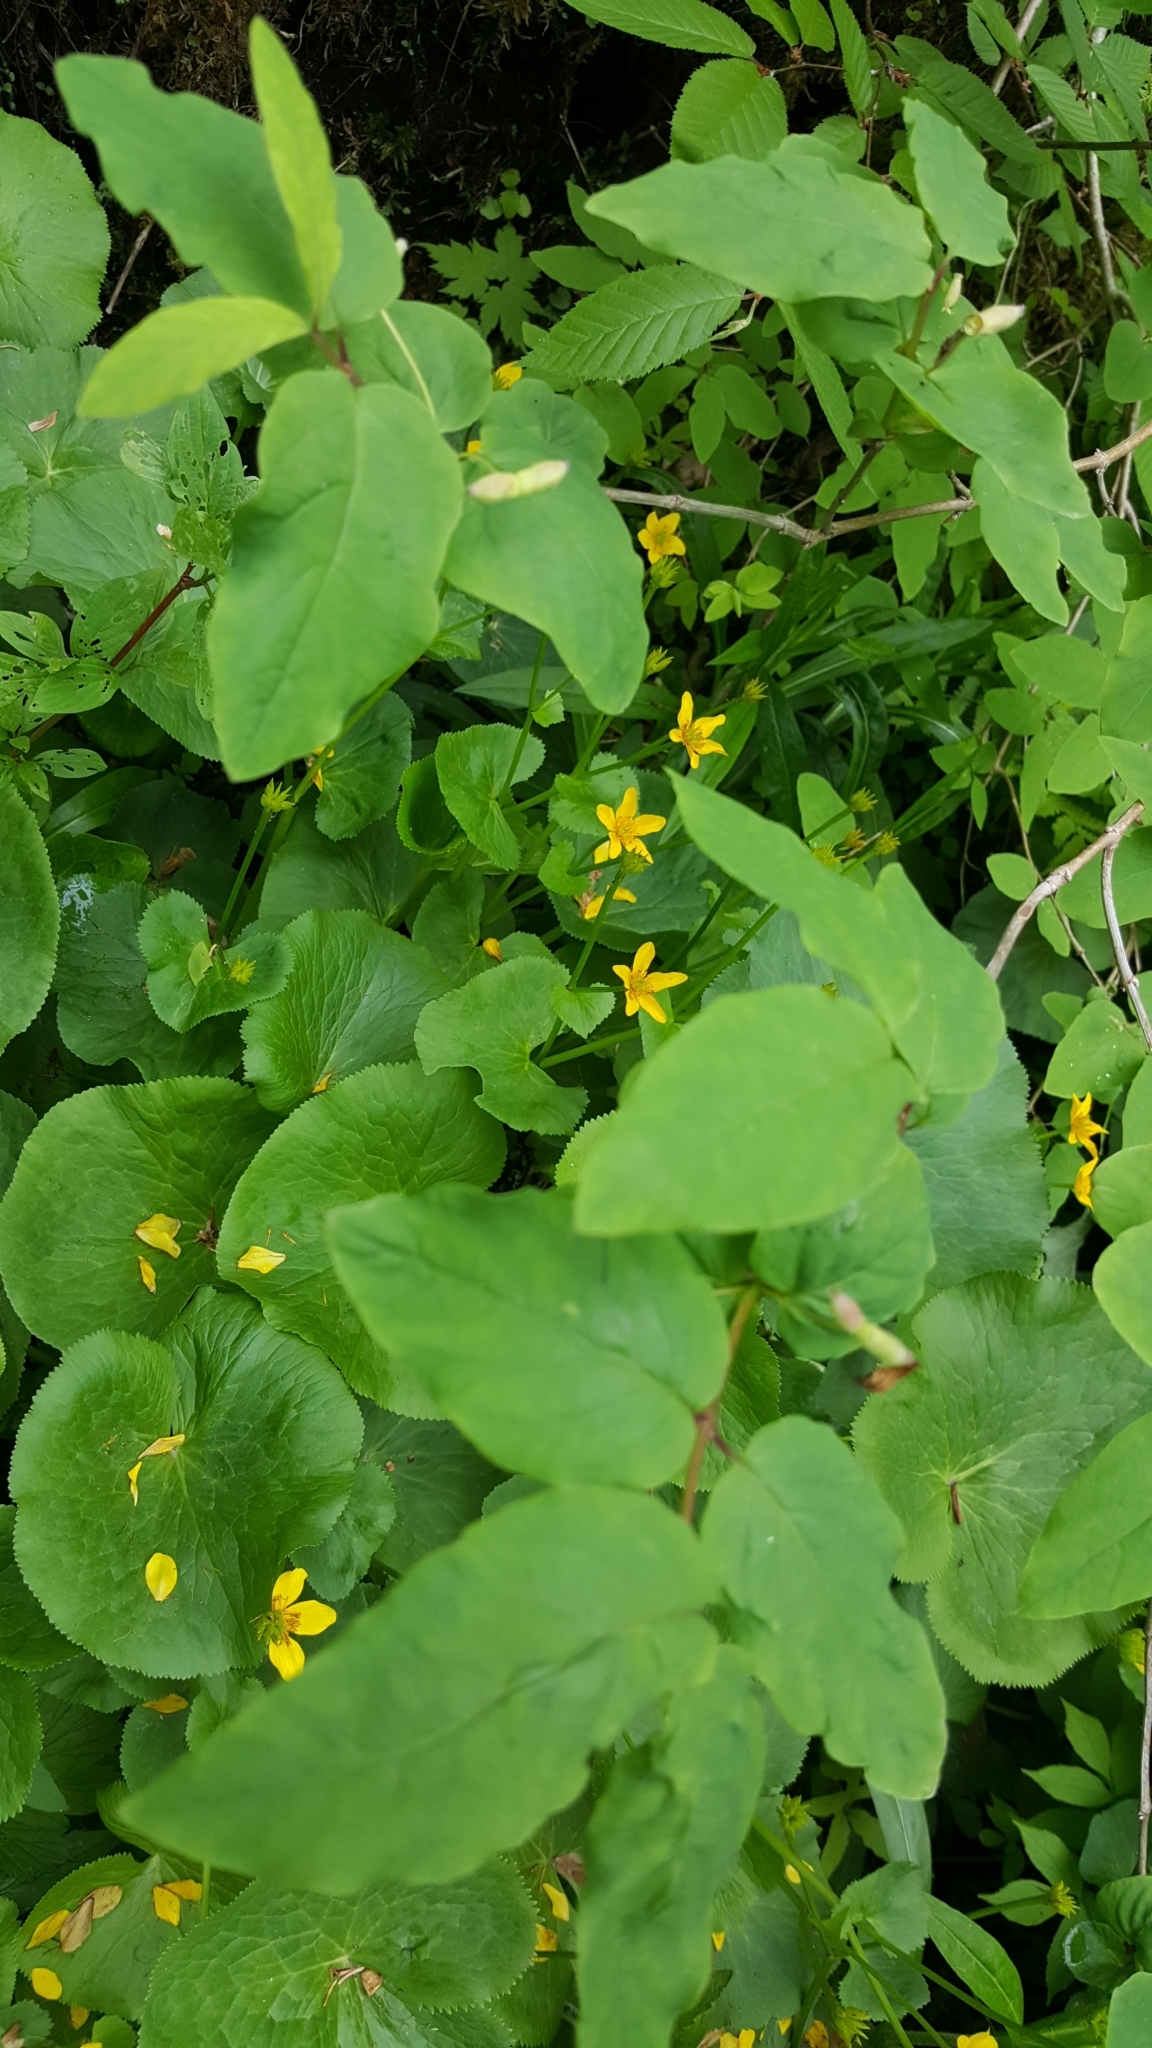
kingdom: Plantae
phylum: Tracheophyta
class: Magnoliopsida
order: Dipsacales
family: Caprifoliaceae
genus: Lonicera
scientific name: Lonicera canadensis
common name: American fly-honeysuckle
